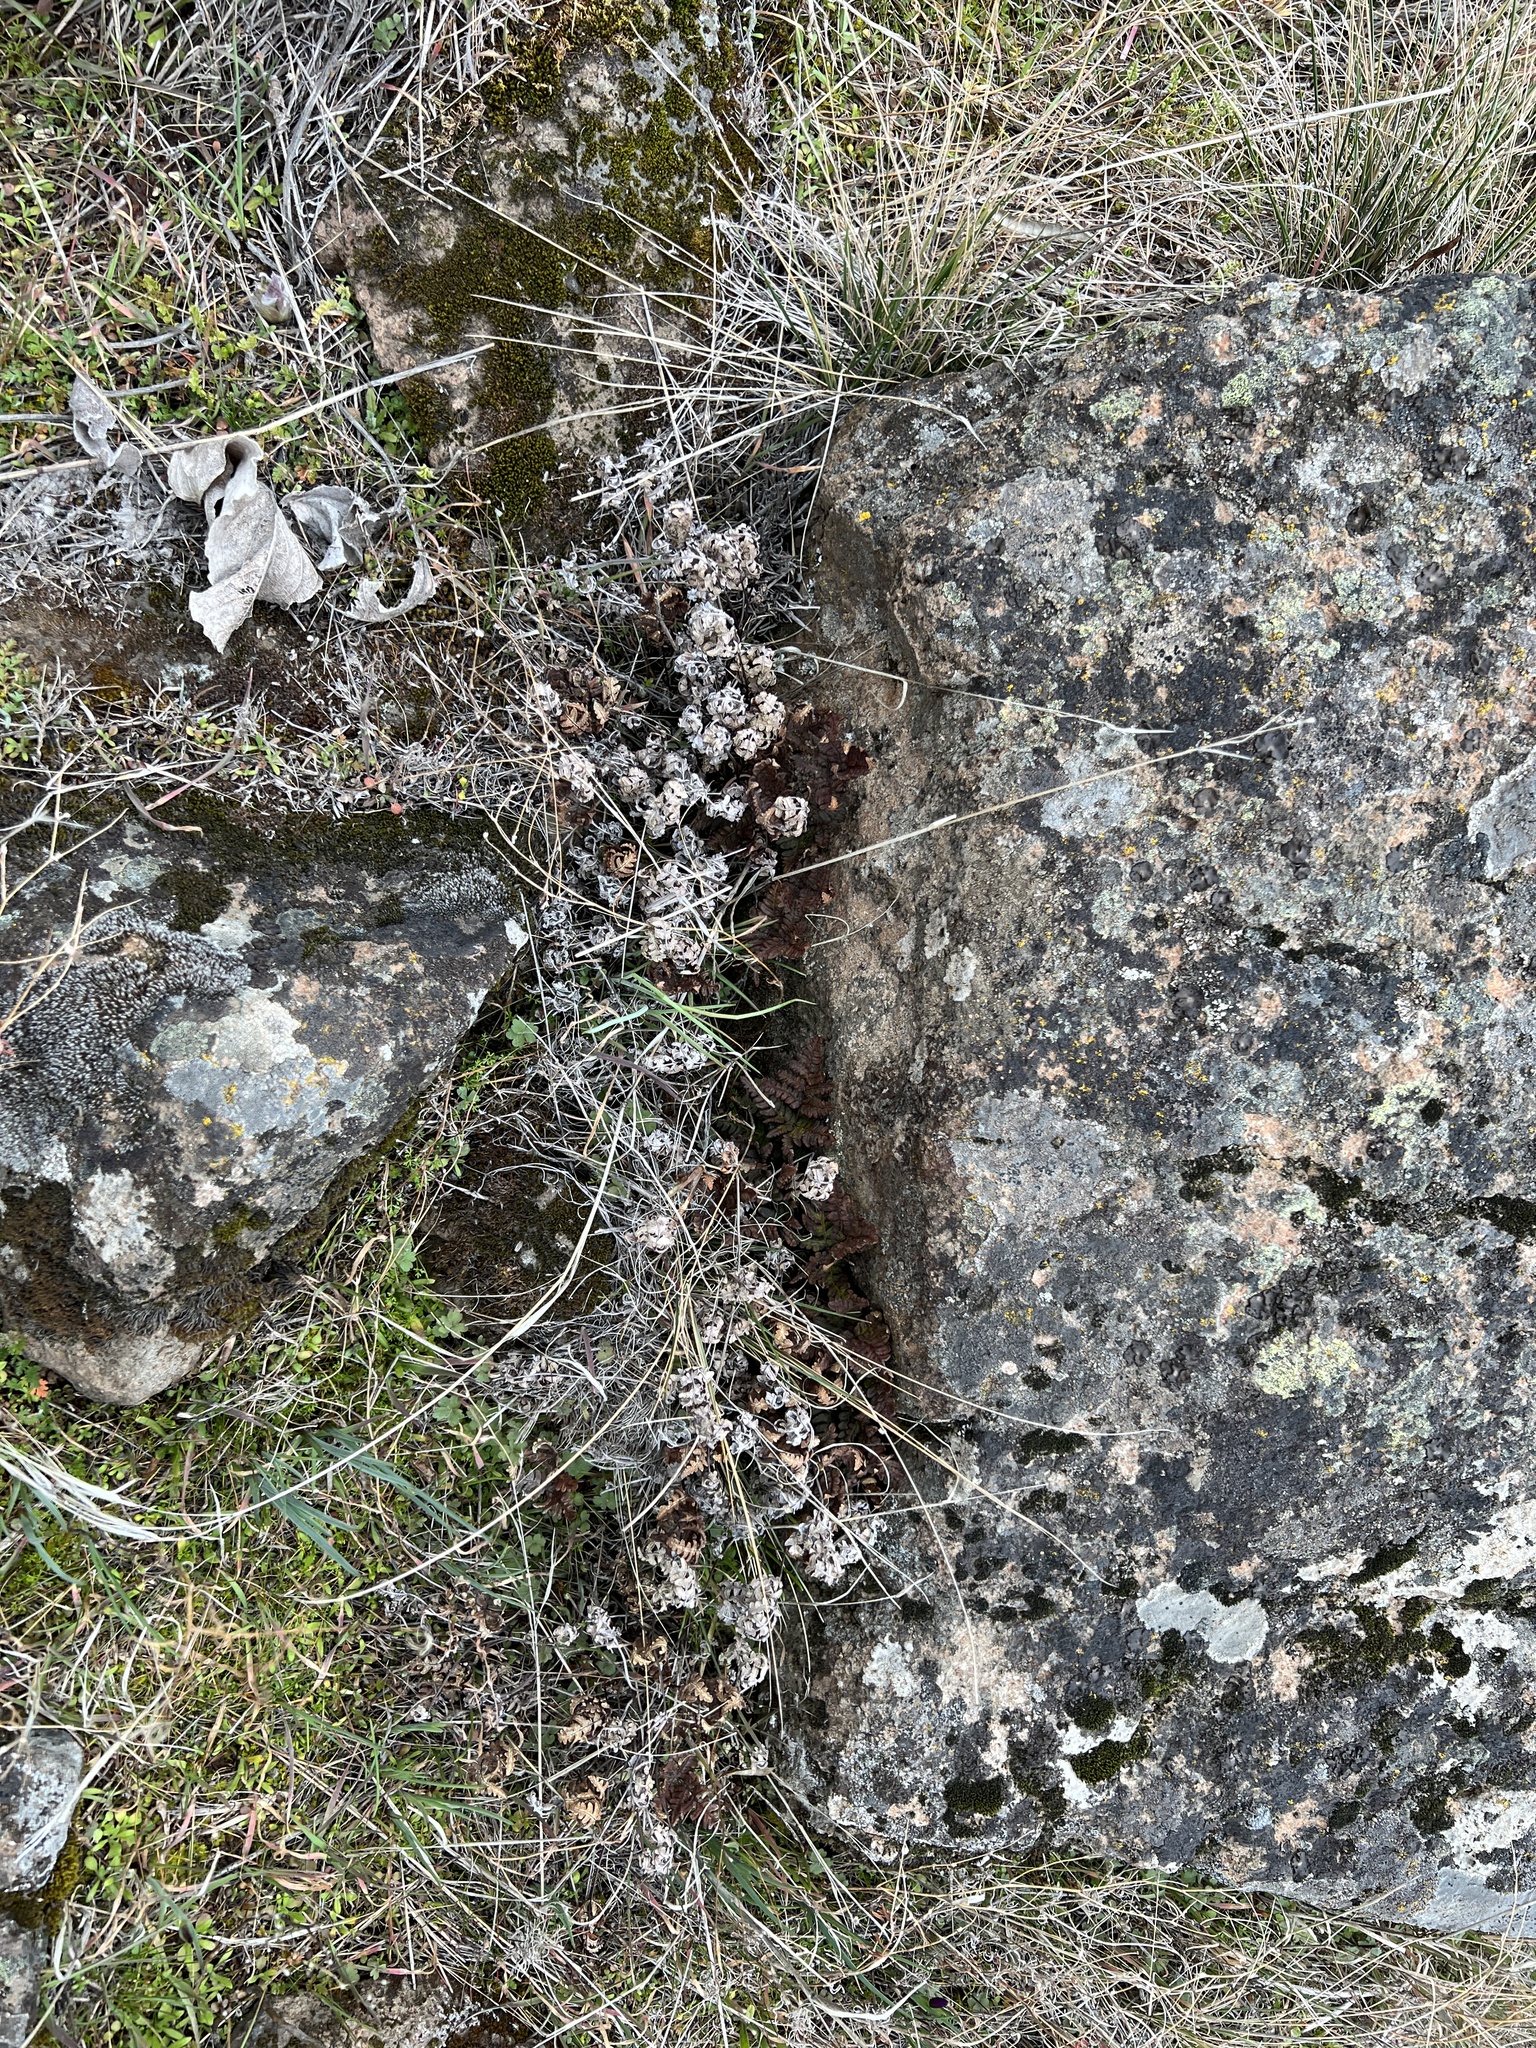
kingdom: Plantae
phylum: Tracheophyta
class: Polypodiopsida
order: Polypodiales
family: Pteridaceae
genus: Pentagramma
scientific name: Pentagramma triangularis
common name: Gold fern
